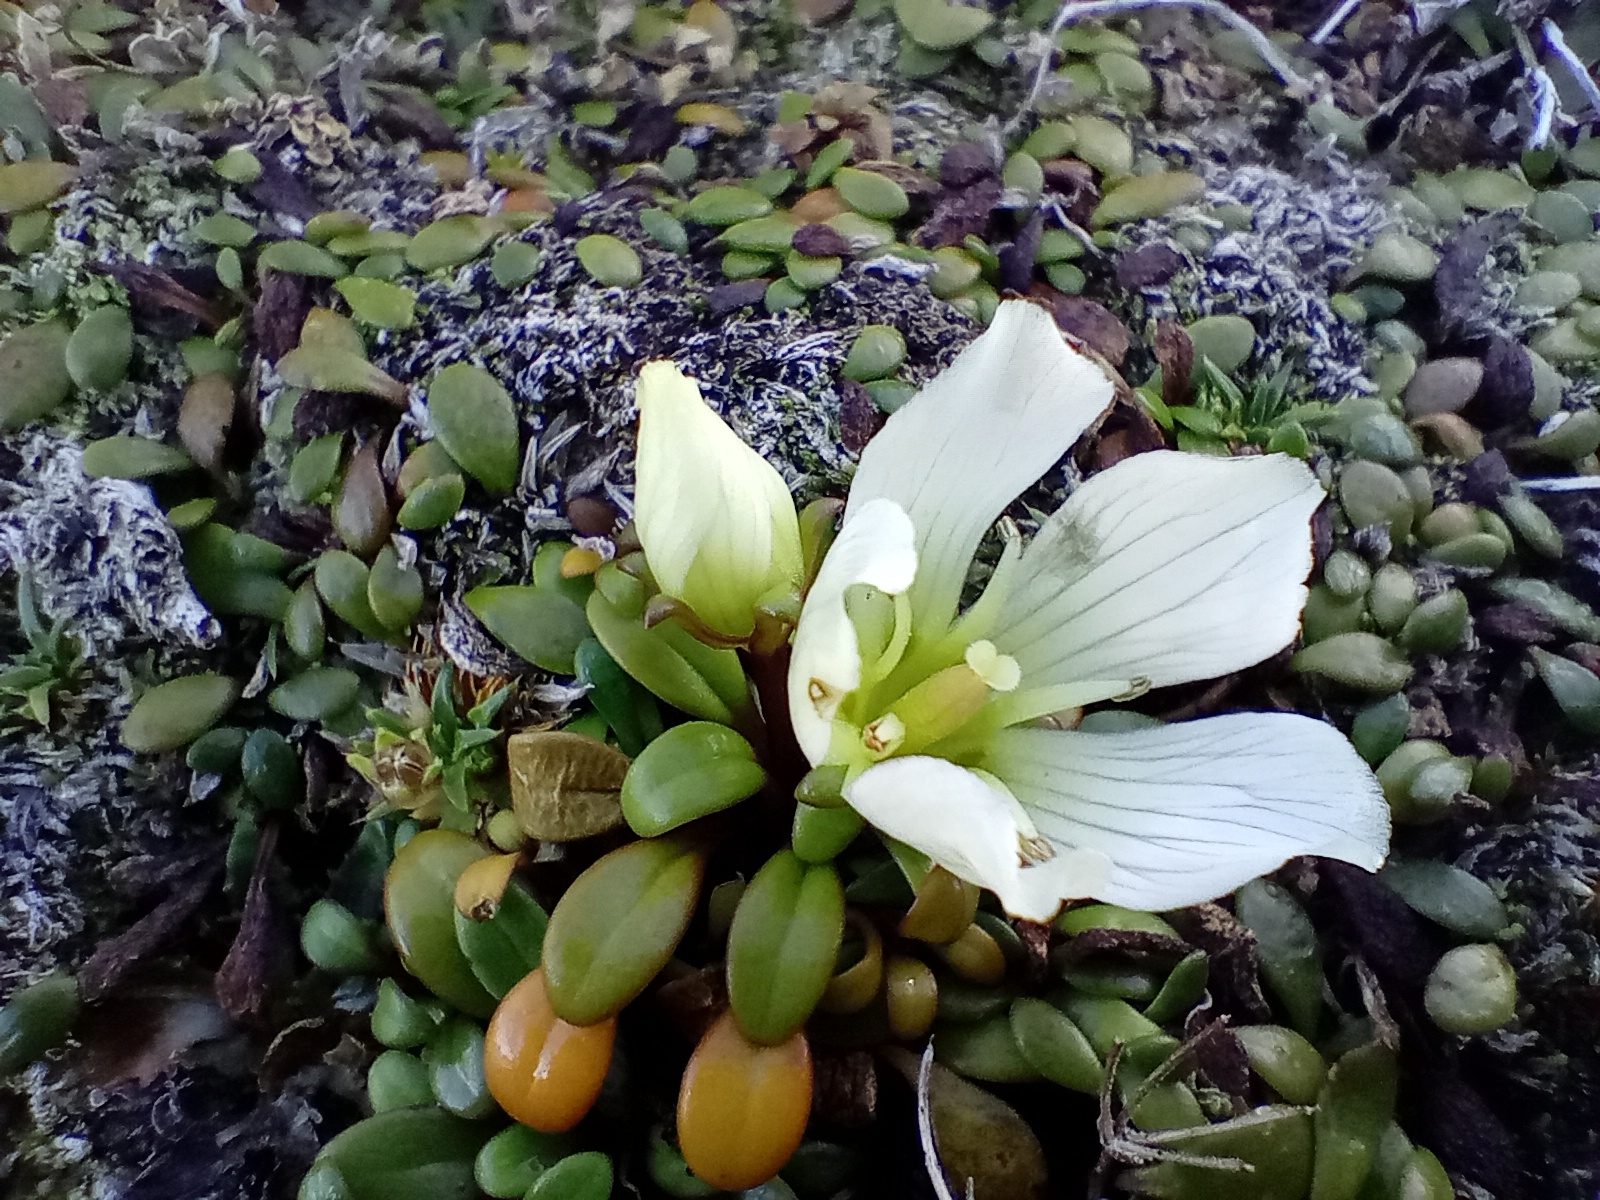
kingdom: Plantae
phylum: Tracheophyta
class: Magnoliopsida
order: Gentianales
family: Gentianaceae
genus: Gentianella
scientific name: Gentianella saxosa
